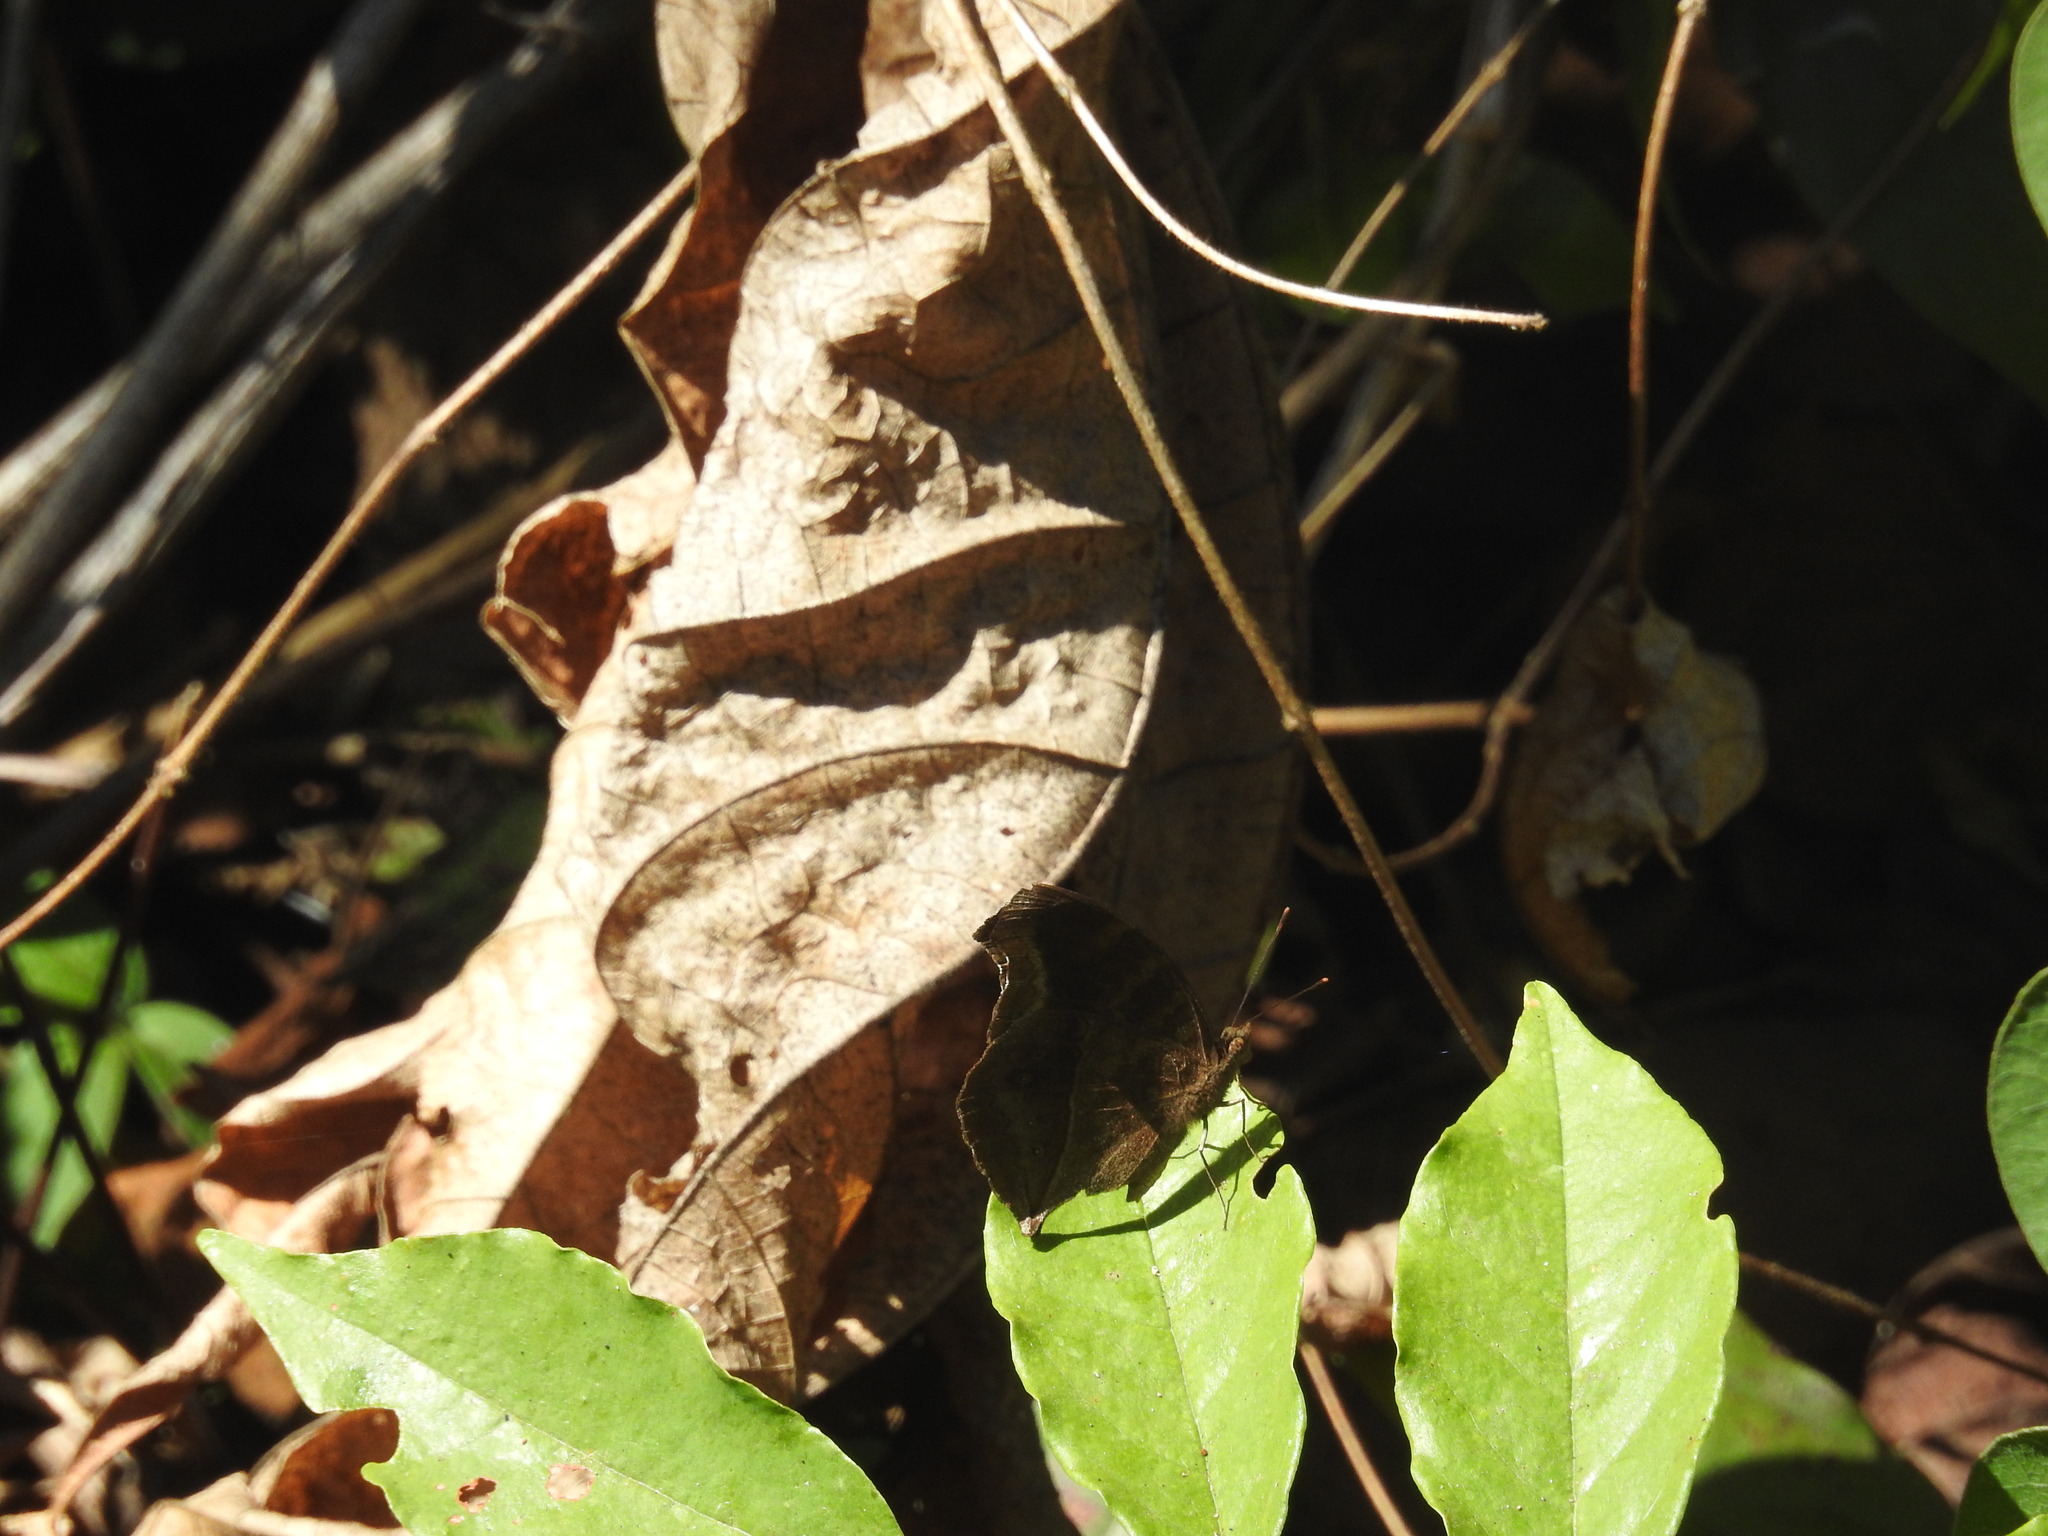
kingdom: Animalia
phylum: Arthropoda
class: Insecta
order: Lepidoptera
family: Nymphalidae
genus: Junonia
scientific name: Junonia iphita
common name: Chocolate pansy
